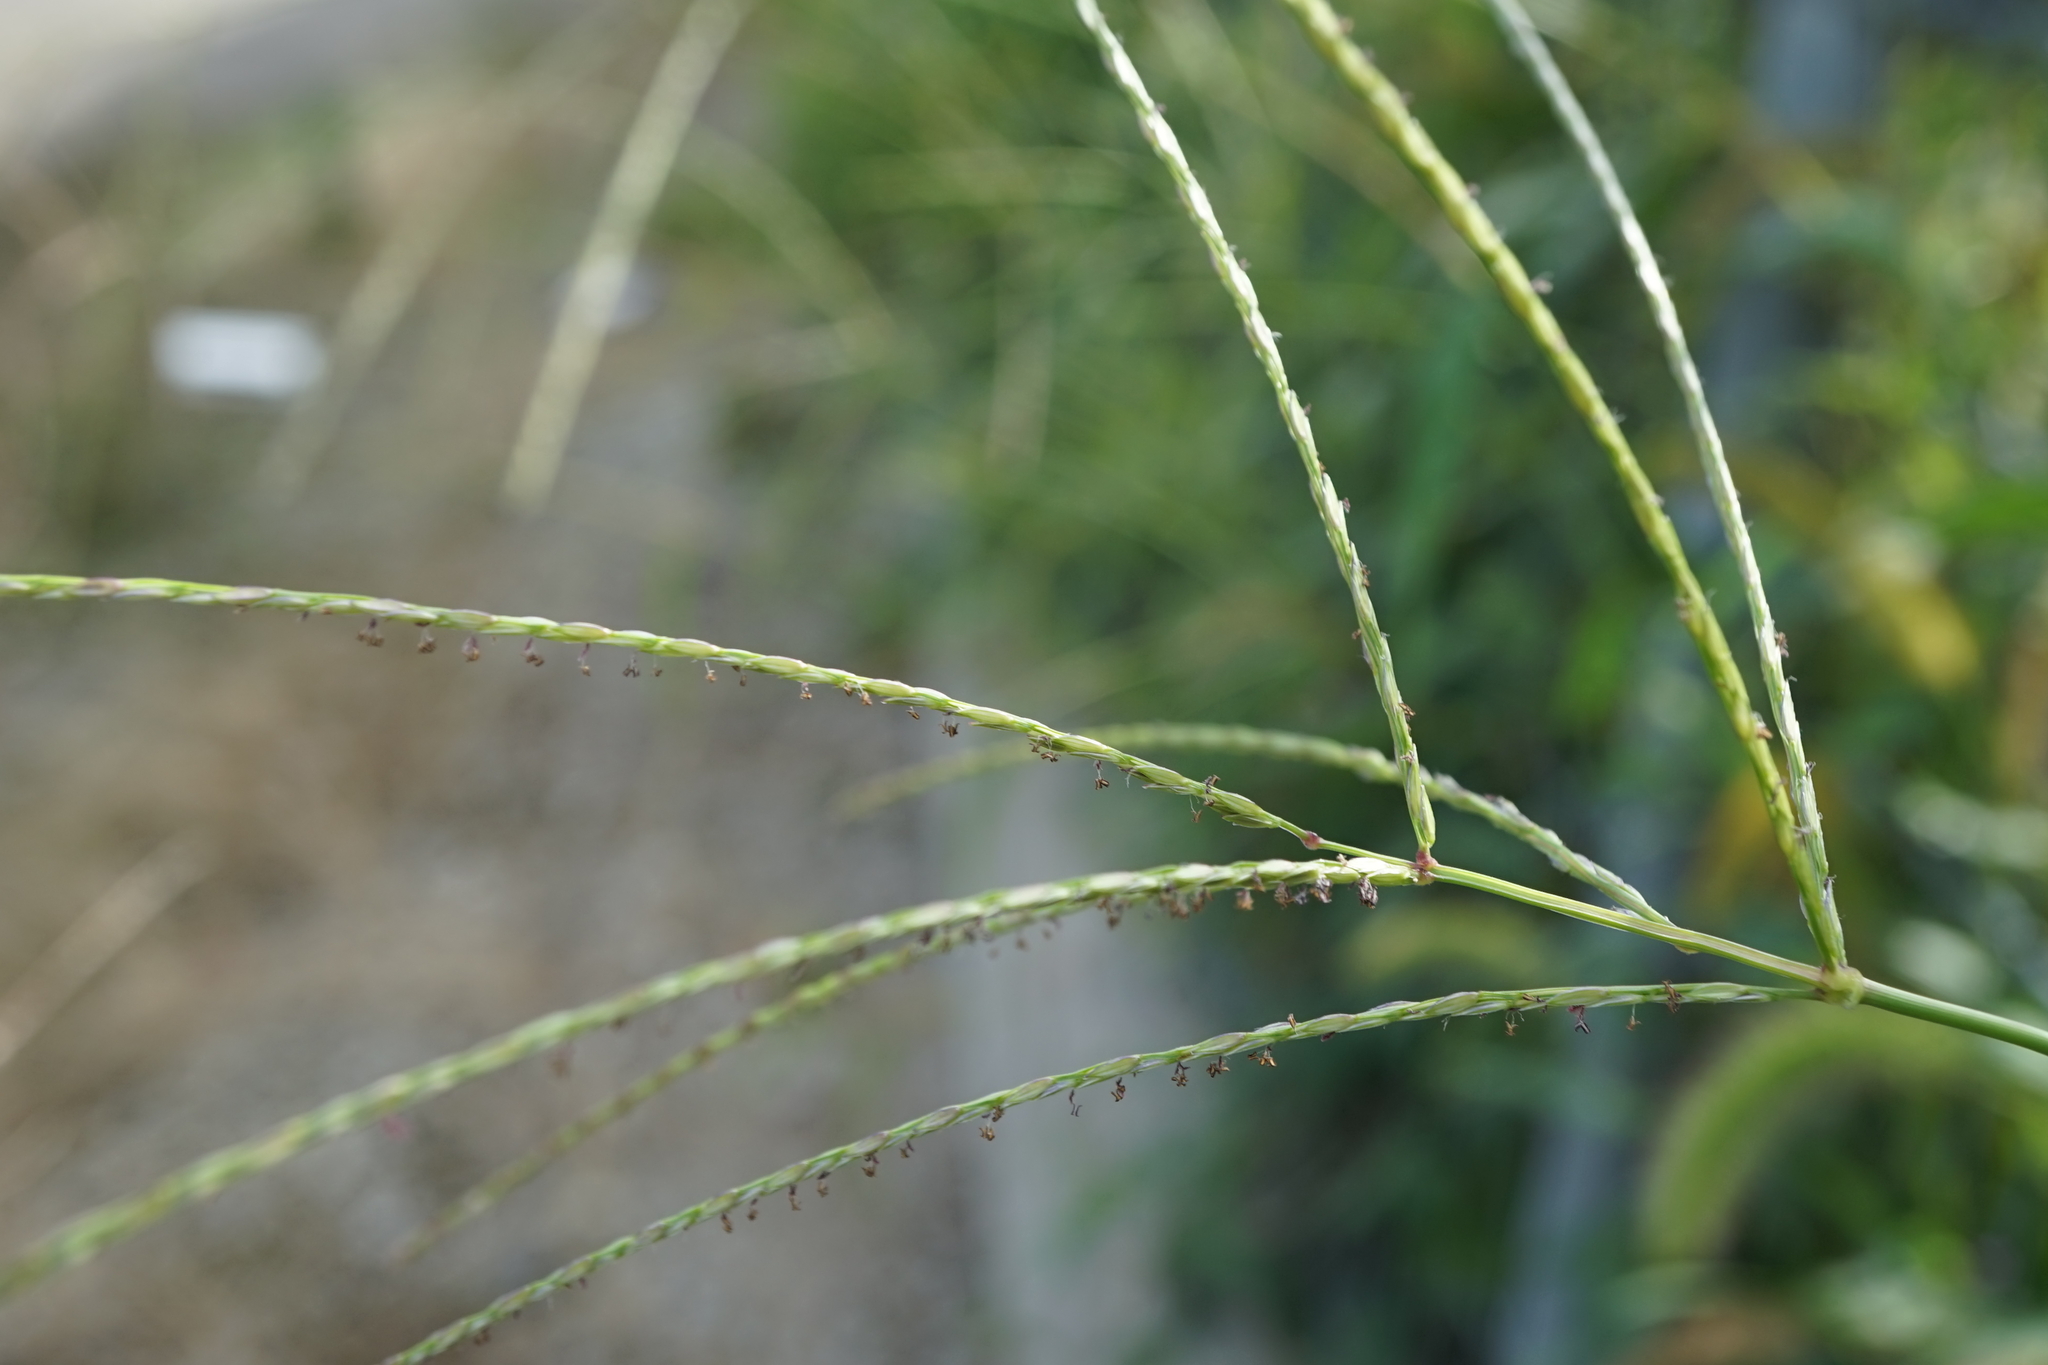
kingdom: Plantae
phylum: Tracheophyta
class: Liliopsida
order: Poales
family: Poaceae
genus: Digitaria
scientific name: Digitaria ciliaris
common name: Tropical finger-grass
